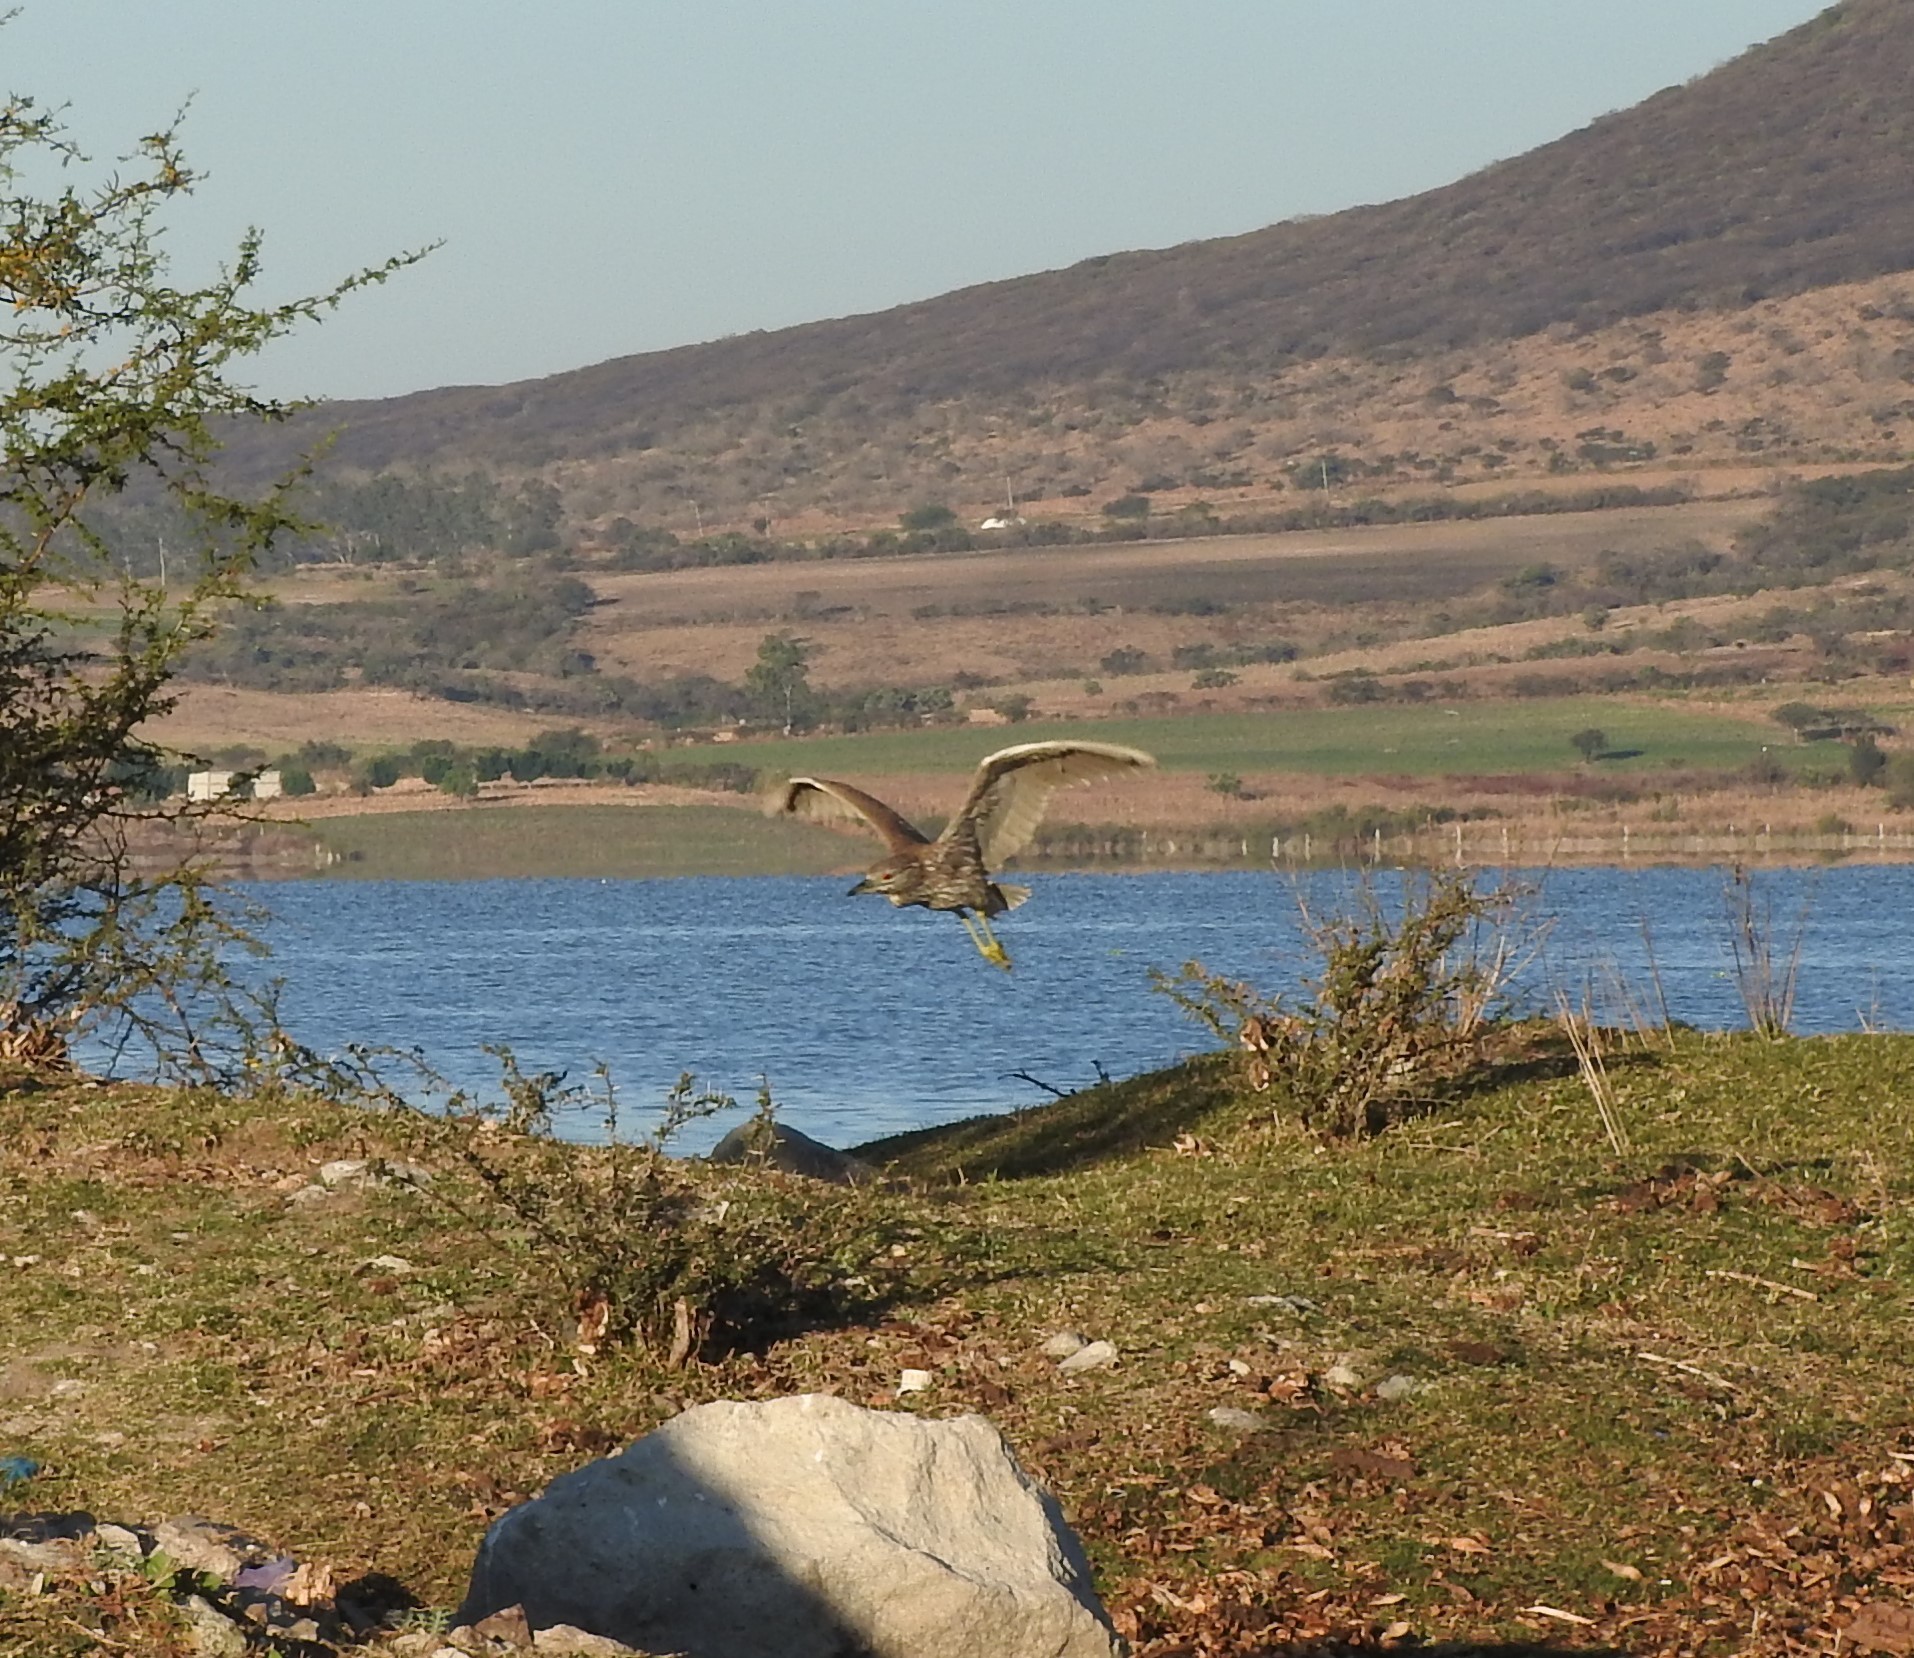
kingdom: Animalia
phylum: Chordata
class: Aves
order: Pelecaniformes
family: Ardeidae
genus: Nycticorax
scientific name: Nycticorax nycticorax
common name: Black-crowned night heron
